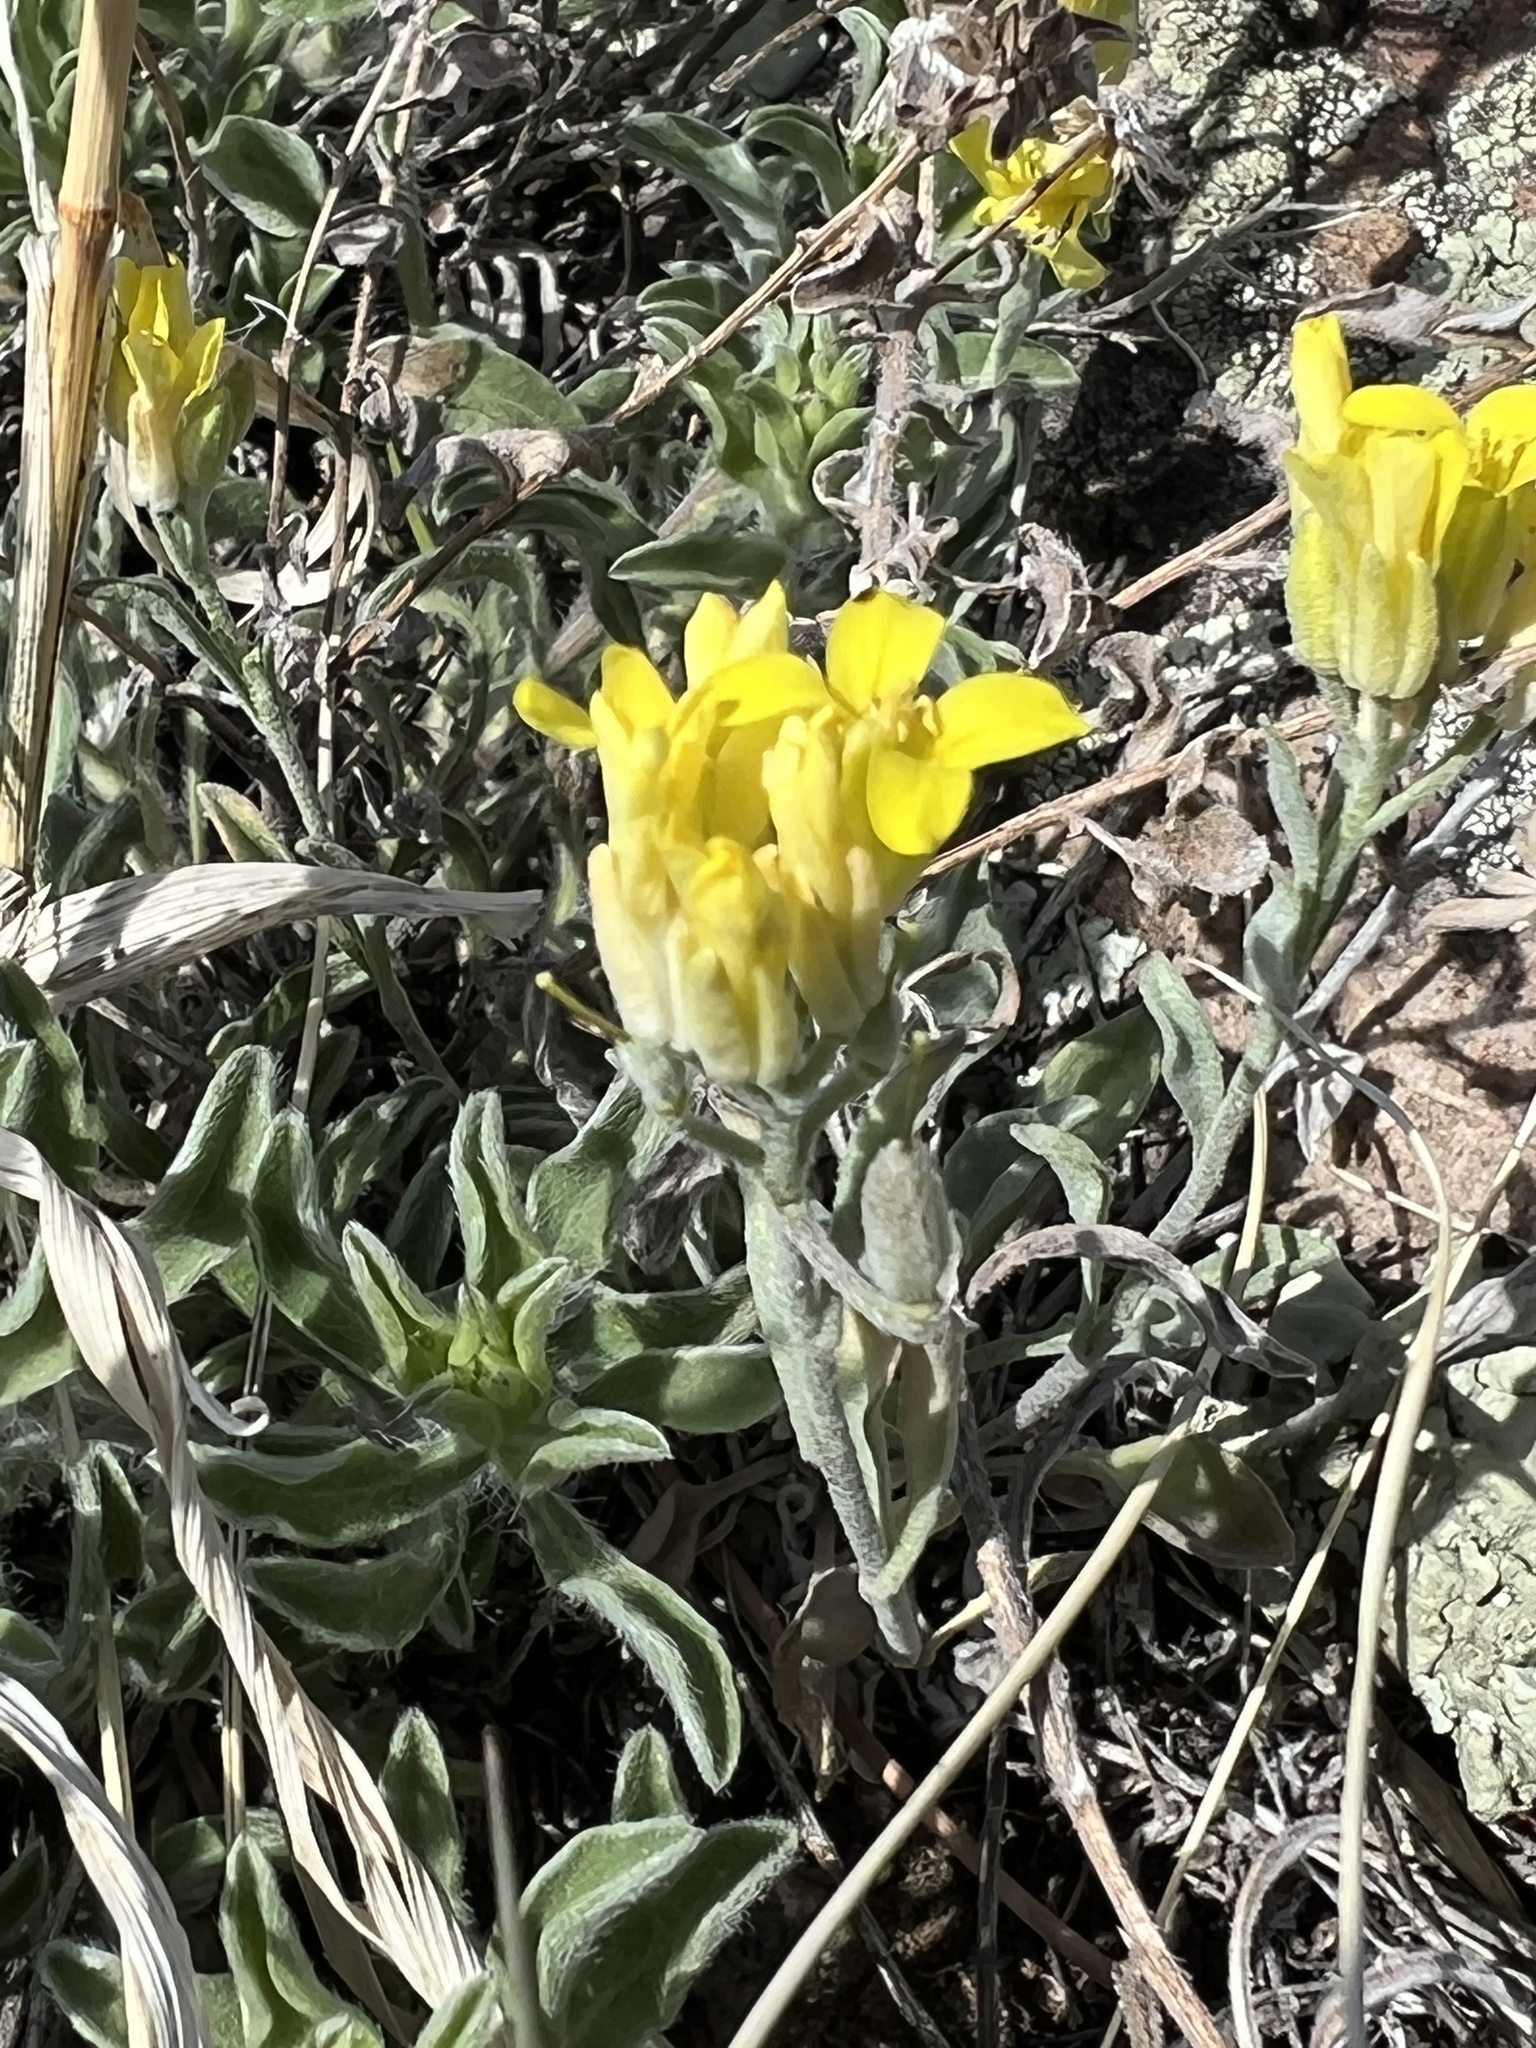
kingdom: Plantae
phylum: Tracheophyta
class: Magnoliopsida
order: Brassicales
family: Brassicaceae
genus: Physaria
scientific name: Physaria montana
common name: Mountain bladderpod
